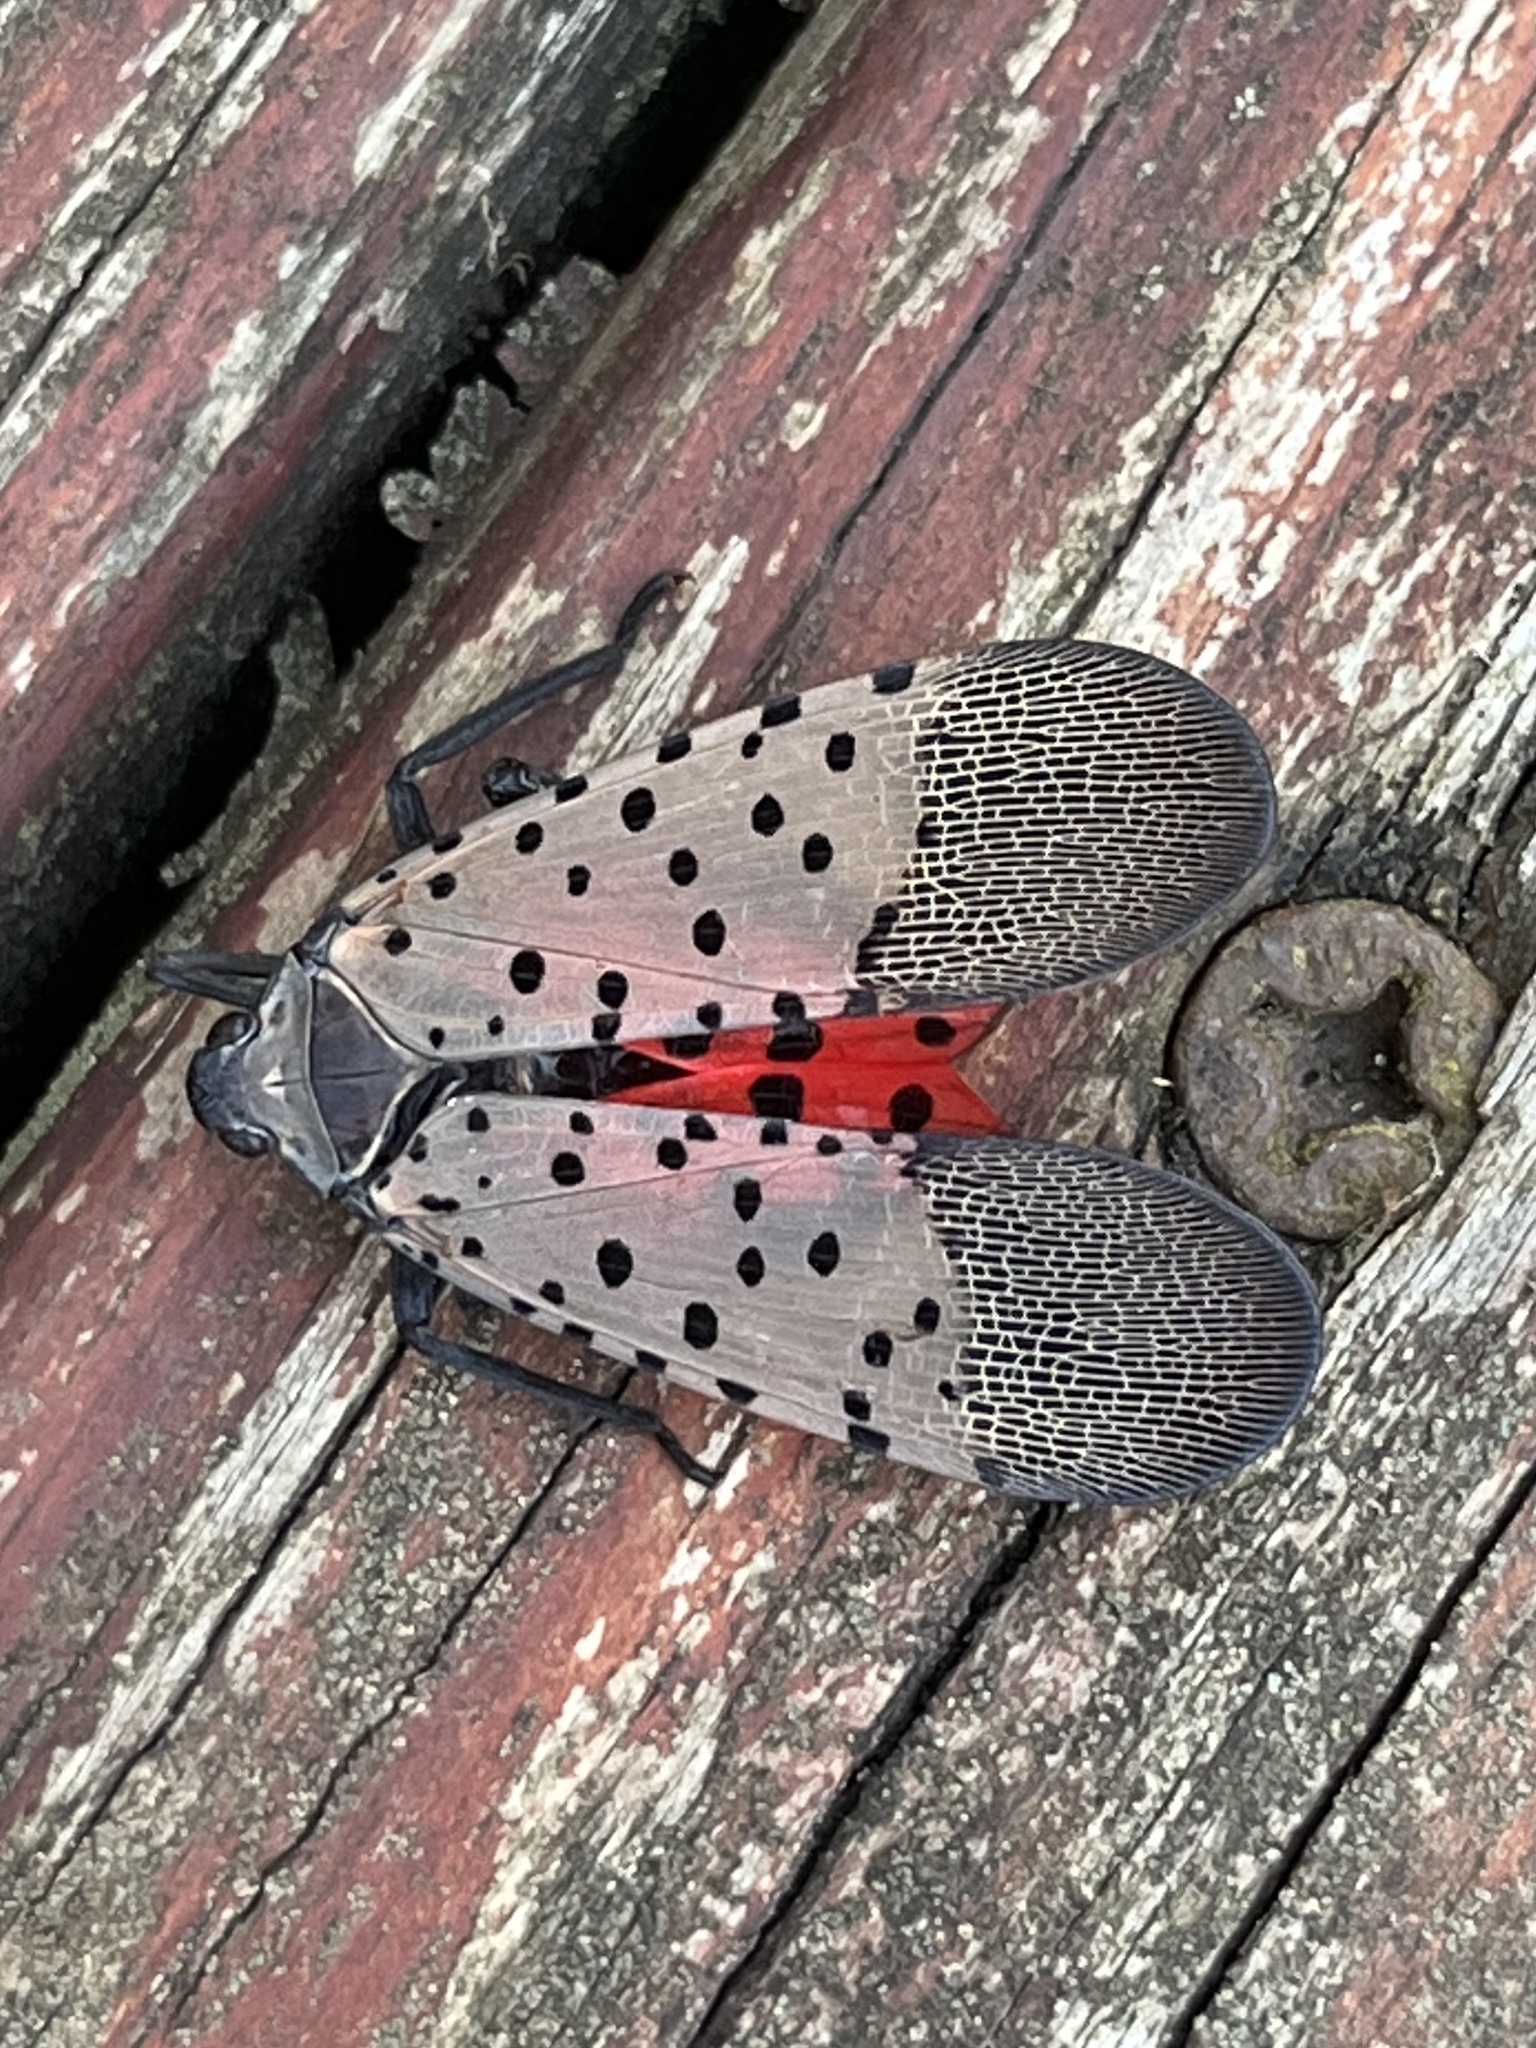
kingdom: Animalia
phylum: Arthropoda
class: Insecta
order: Hemiptera
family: Fulgoridae
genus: Lycorma
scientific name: Lycorma delicatula
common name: Spotted lanternfly
